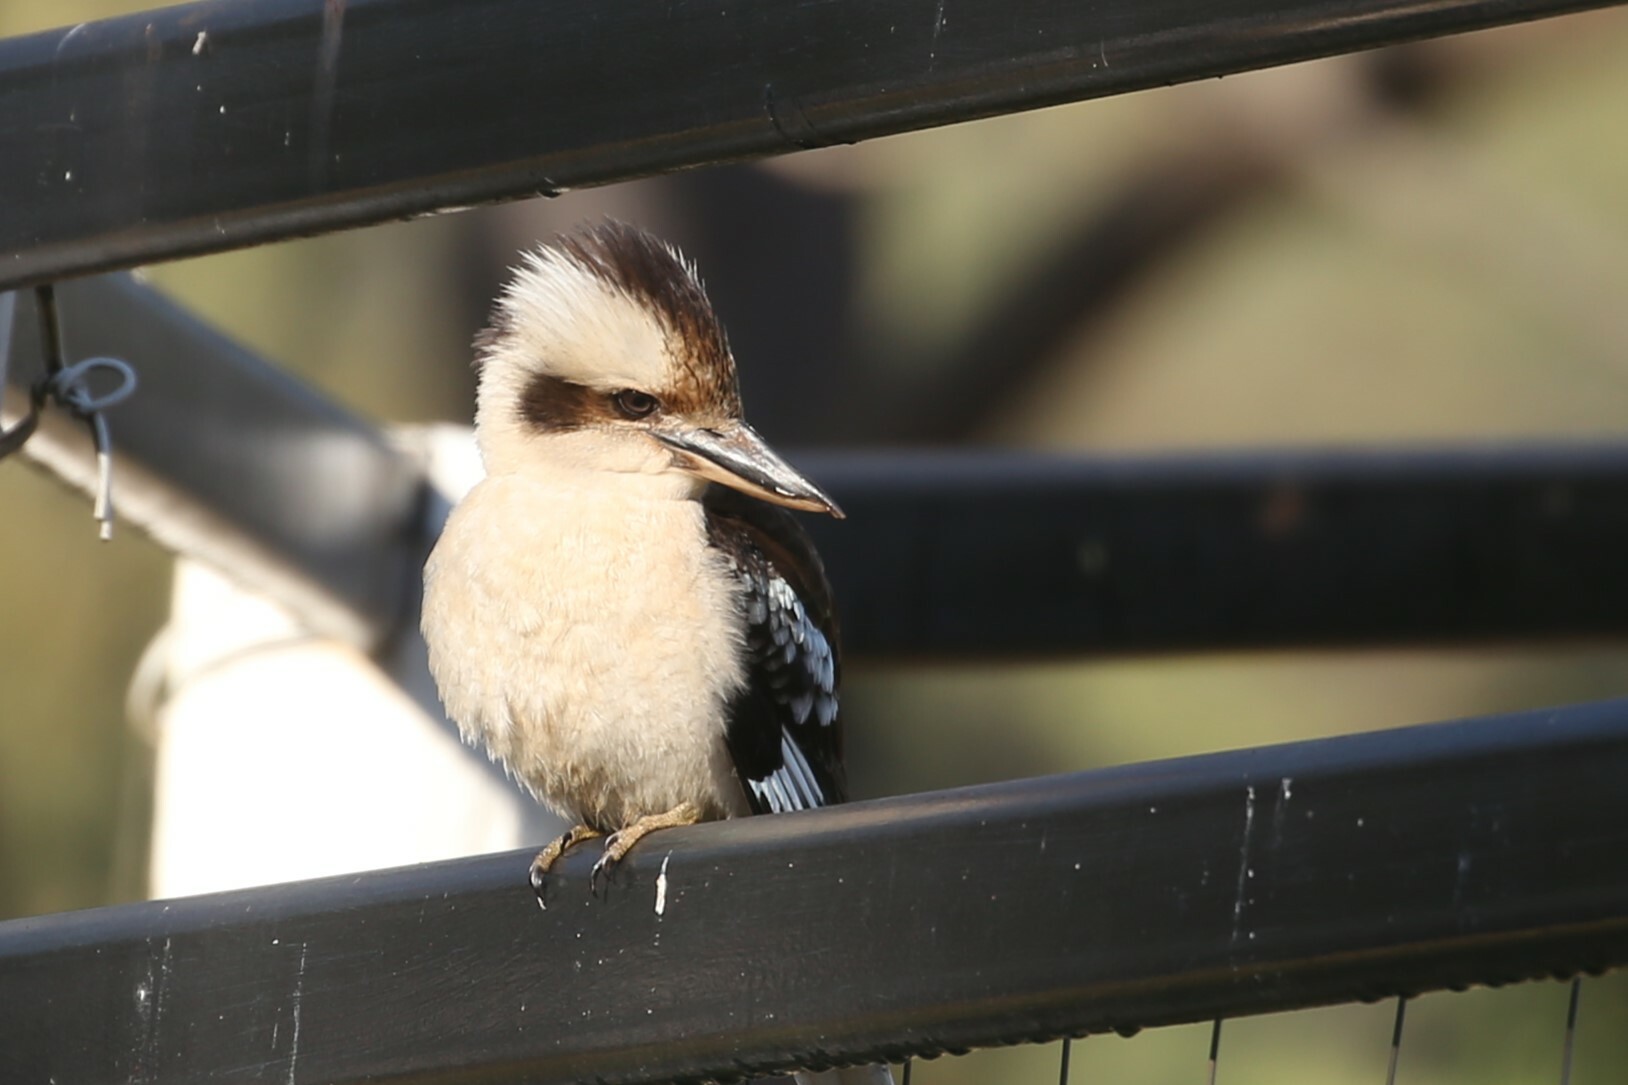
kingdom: Animalia
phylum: Chordata
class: Aves
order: Coraciiformes
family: Alcedinidae
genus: Dacelo
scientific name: Dacelo novaeguineae
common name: Laughing kookaburra
